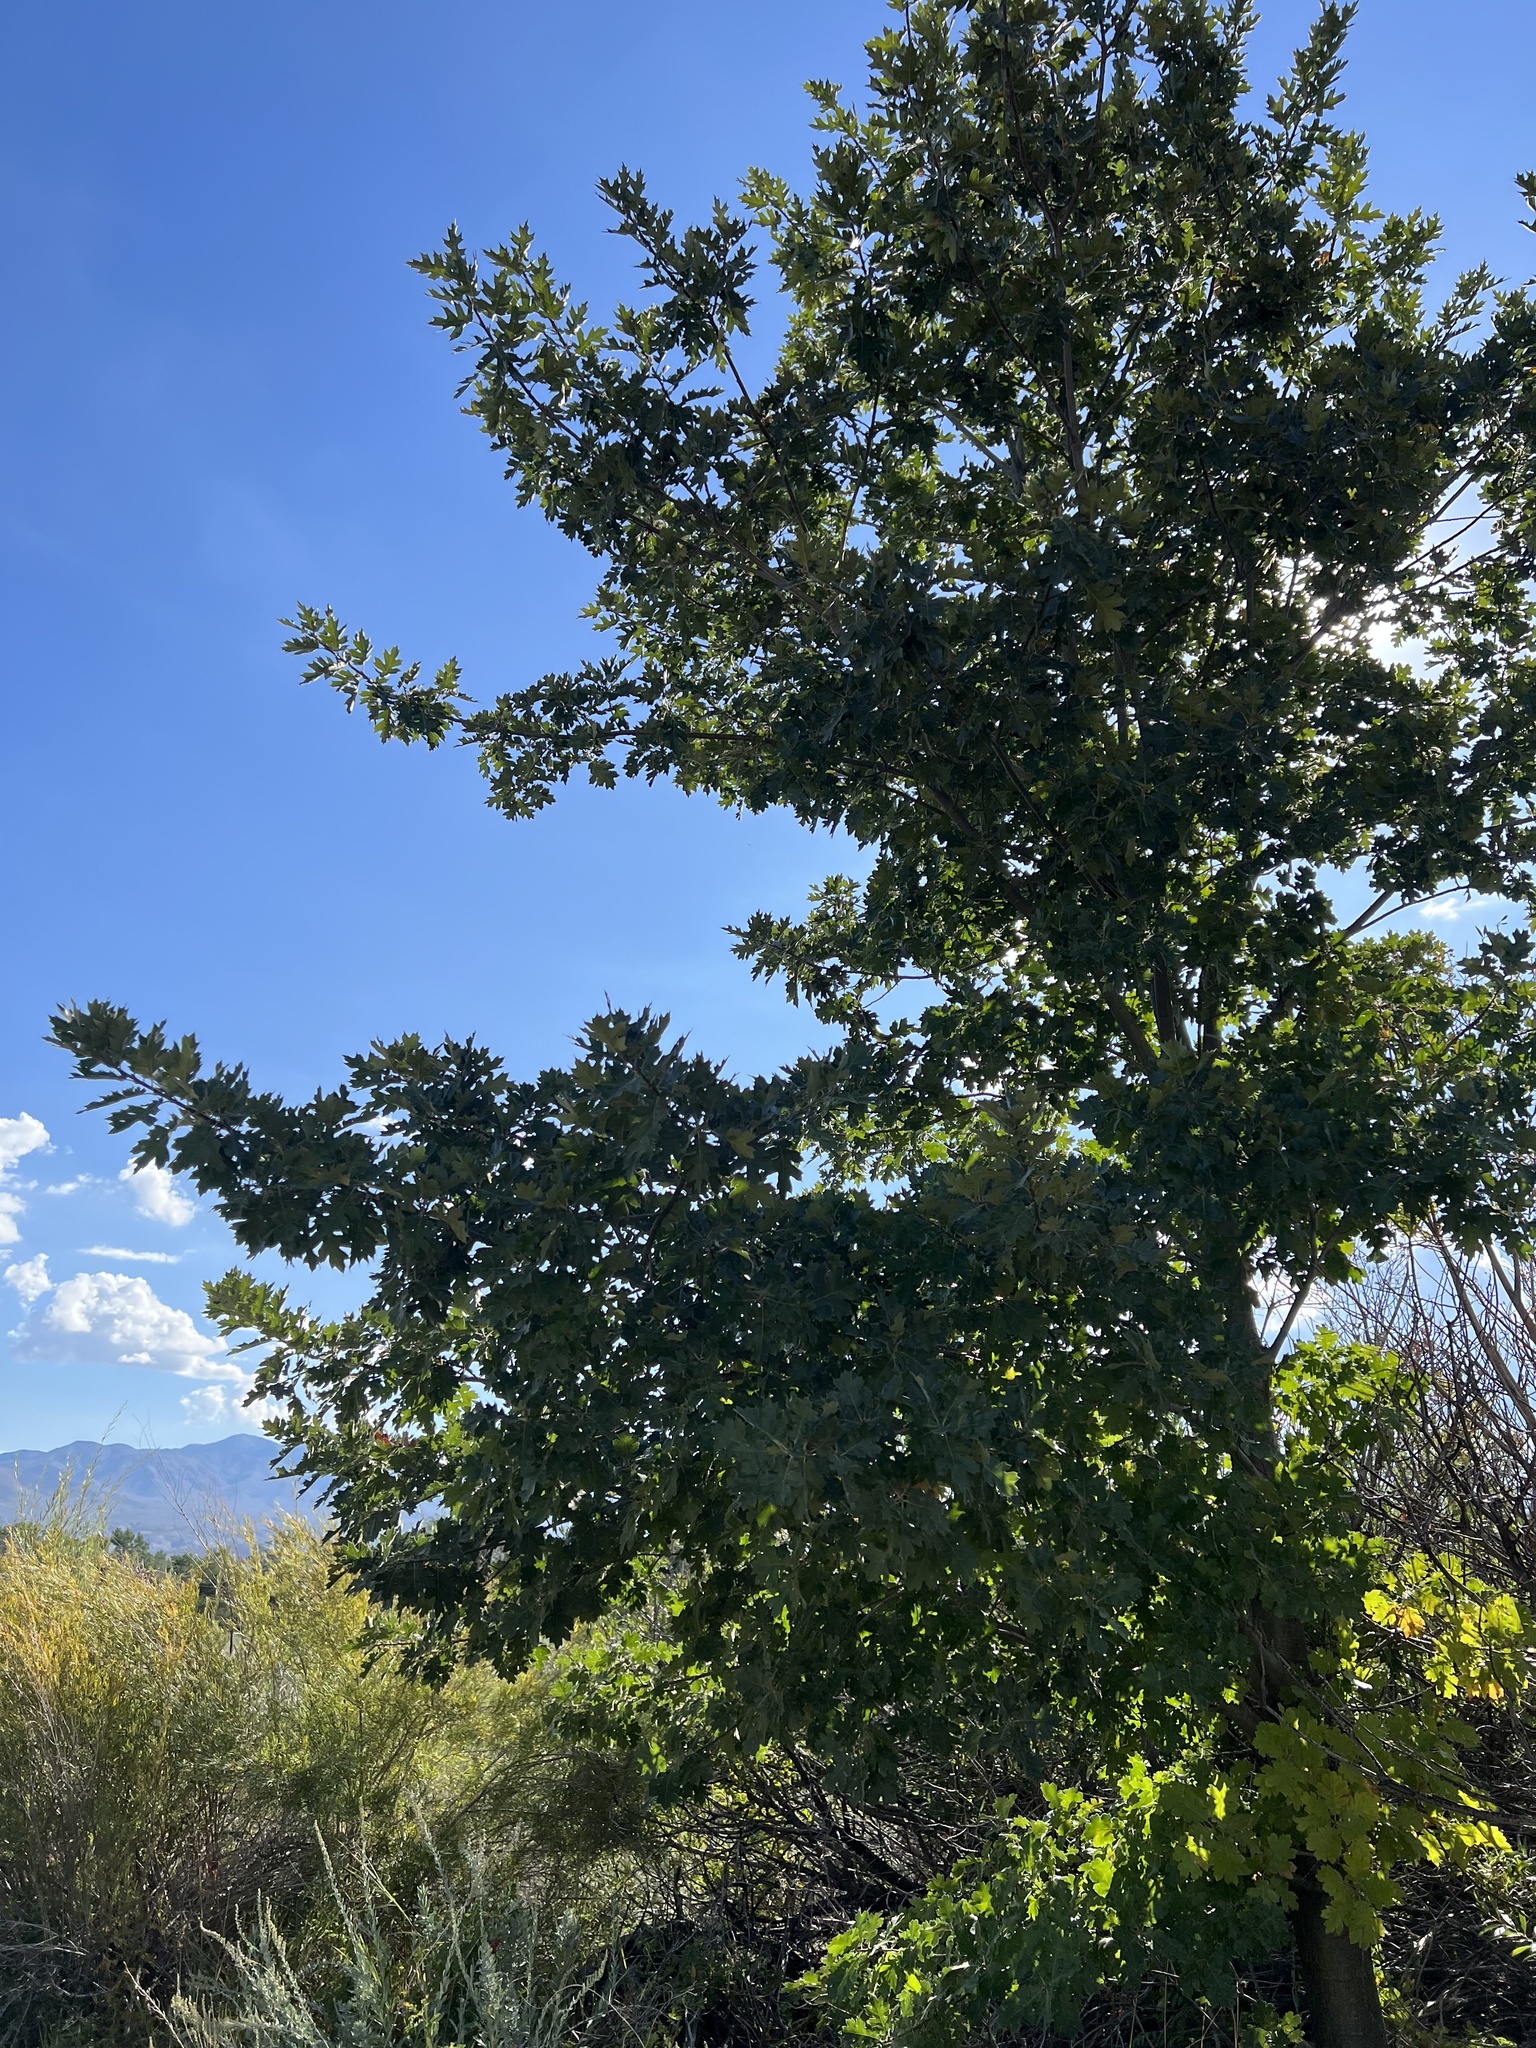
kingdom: Plantae
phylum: Tracheophyta
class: Magnoliopsida
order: Fagales
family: Fagaceae
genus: Quercus
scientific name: Quercus kelloggii
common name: California black oak
